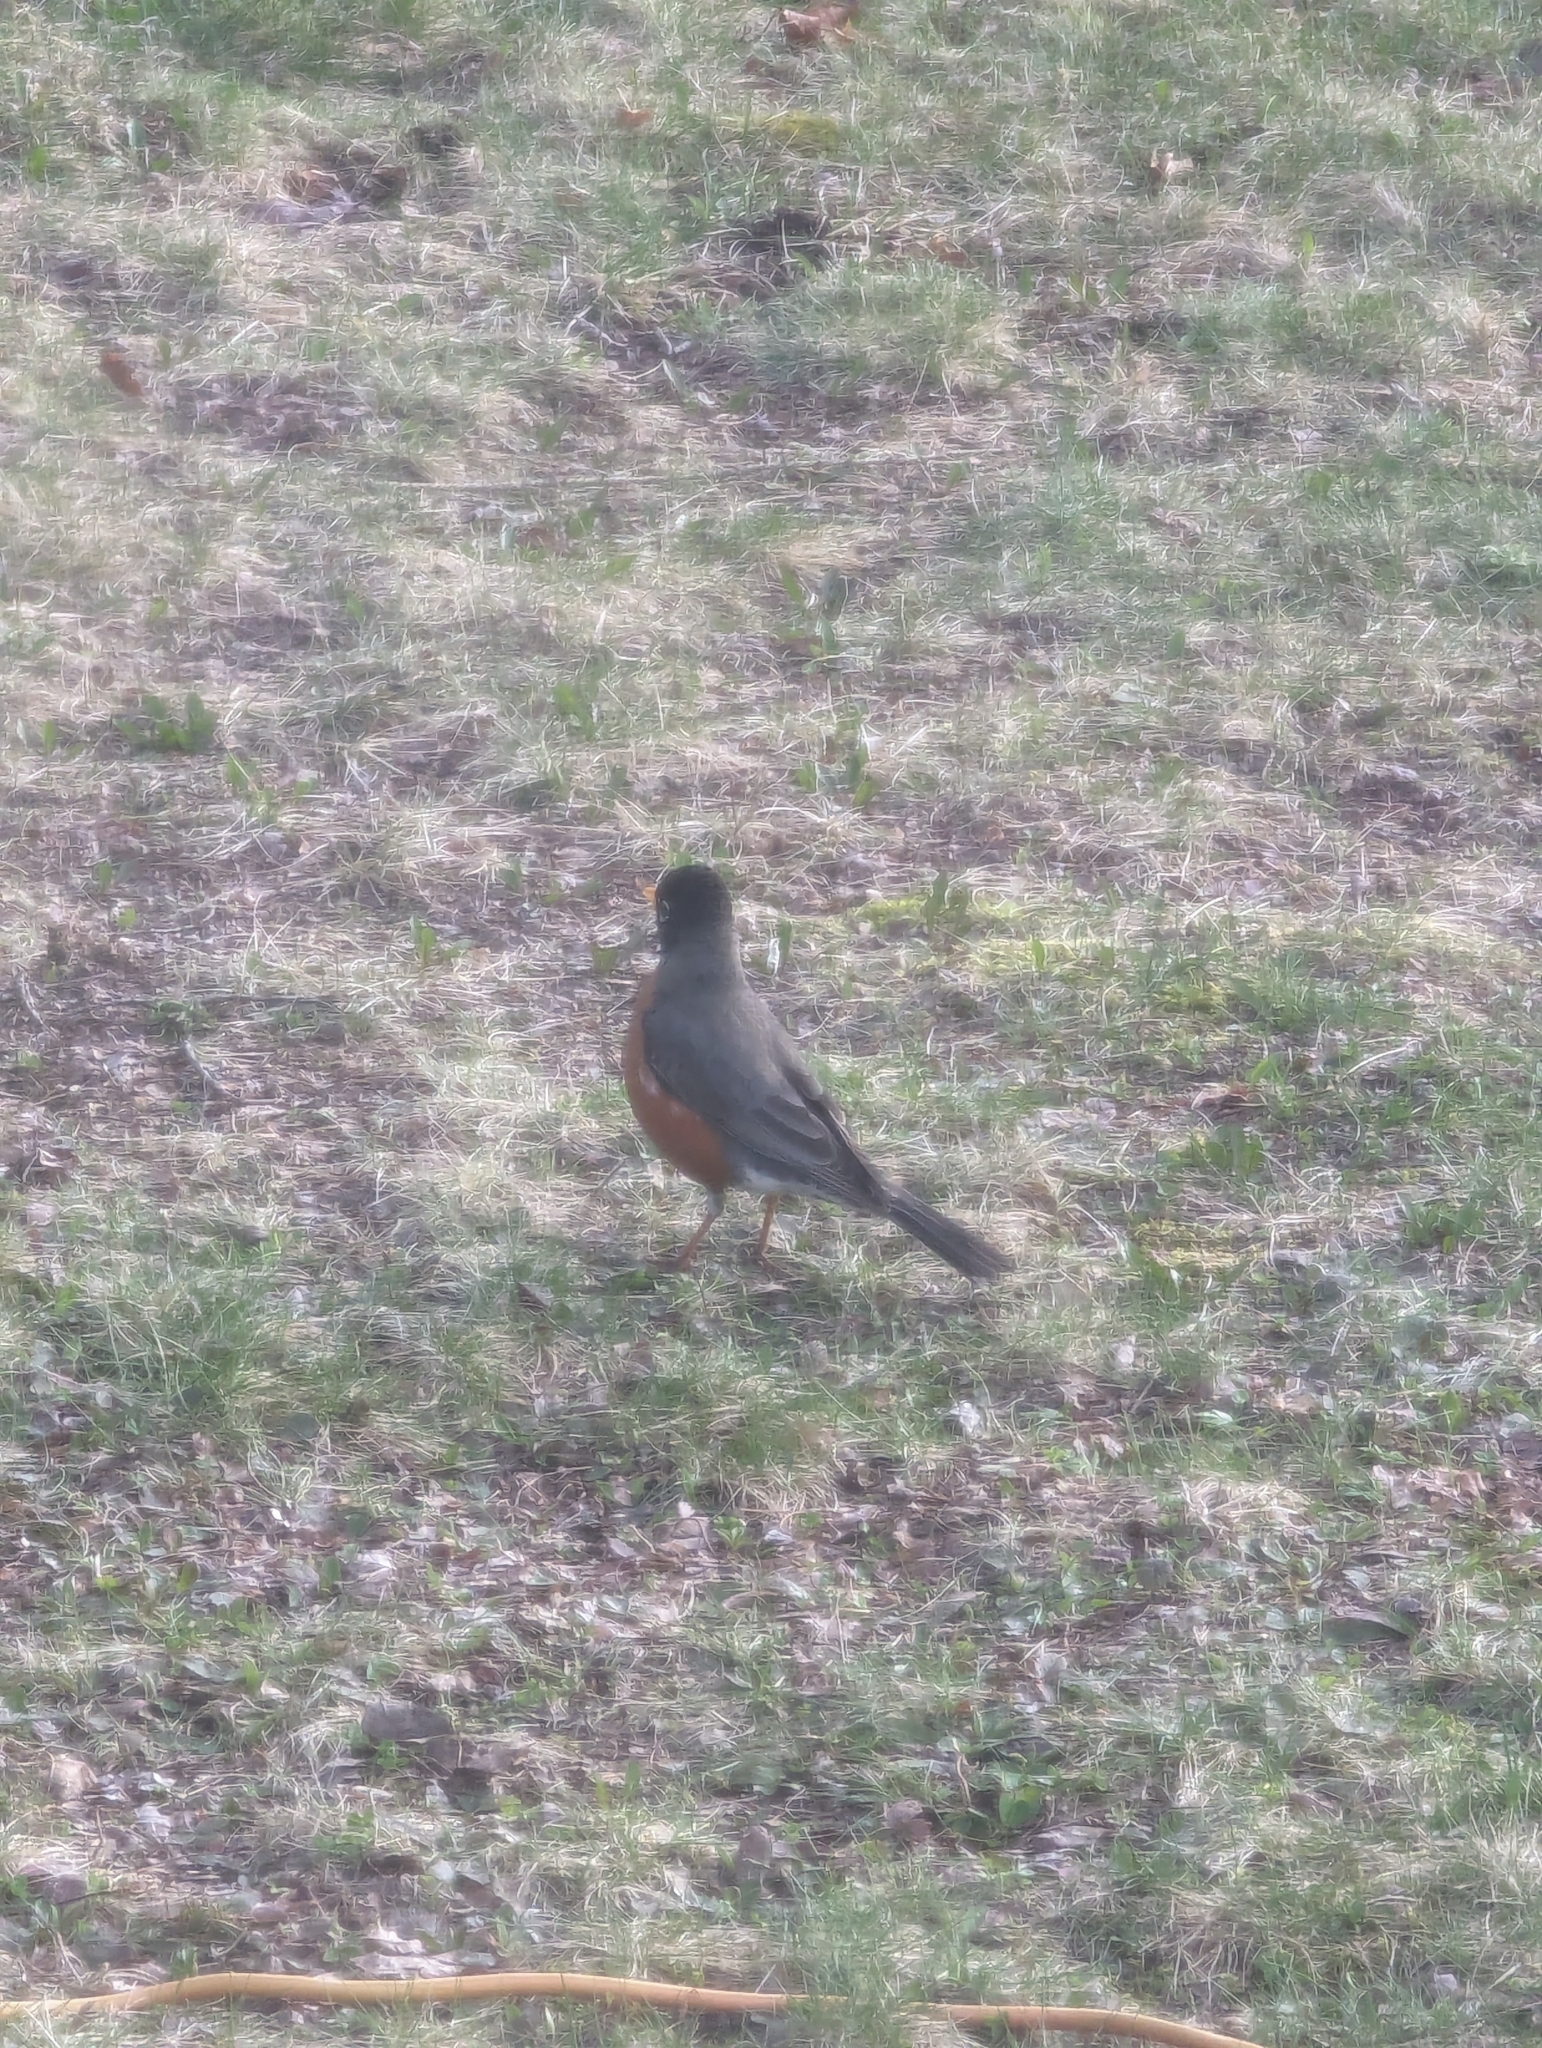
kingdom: Animalia
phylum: Chordata
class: Aves
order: Passeriformes
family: Turdidae
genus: Turdus
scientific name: Turdus migratorius
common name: American robin
